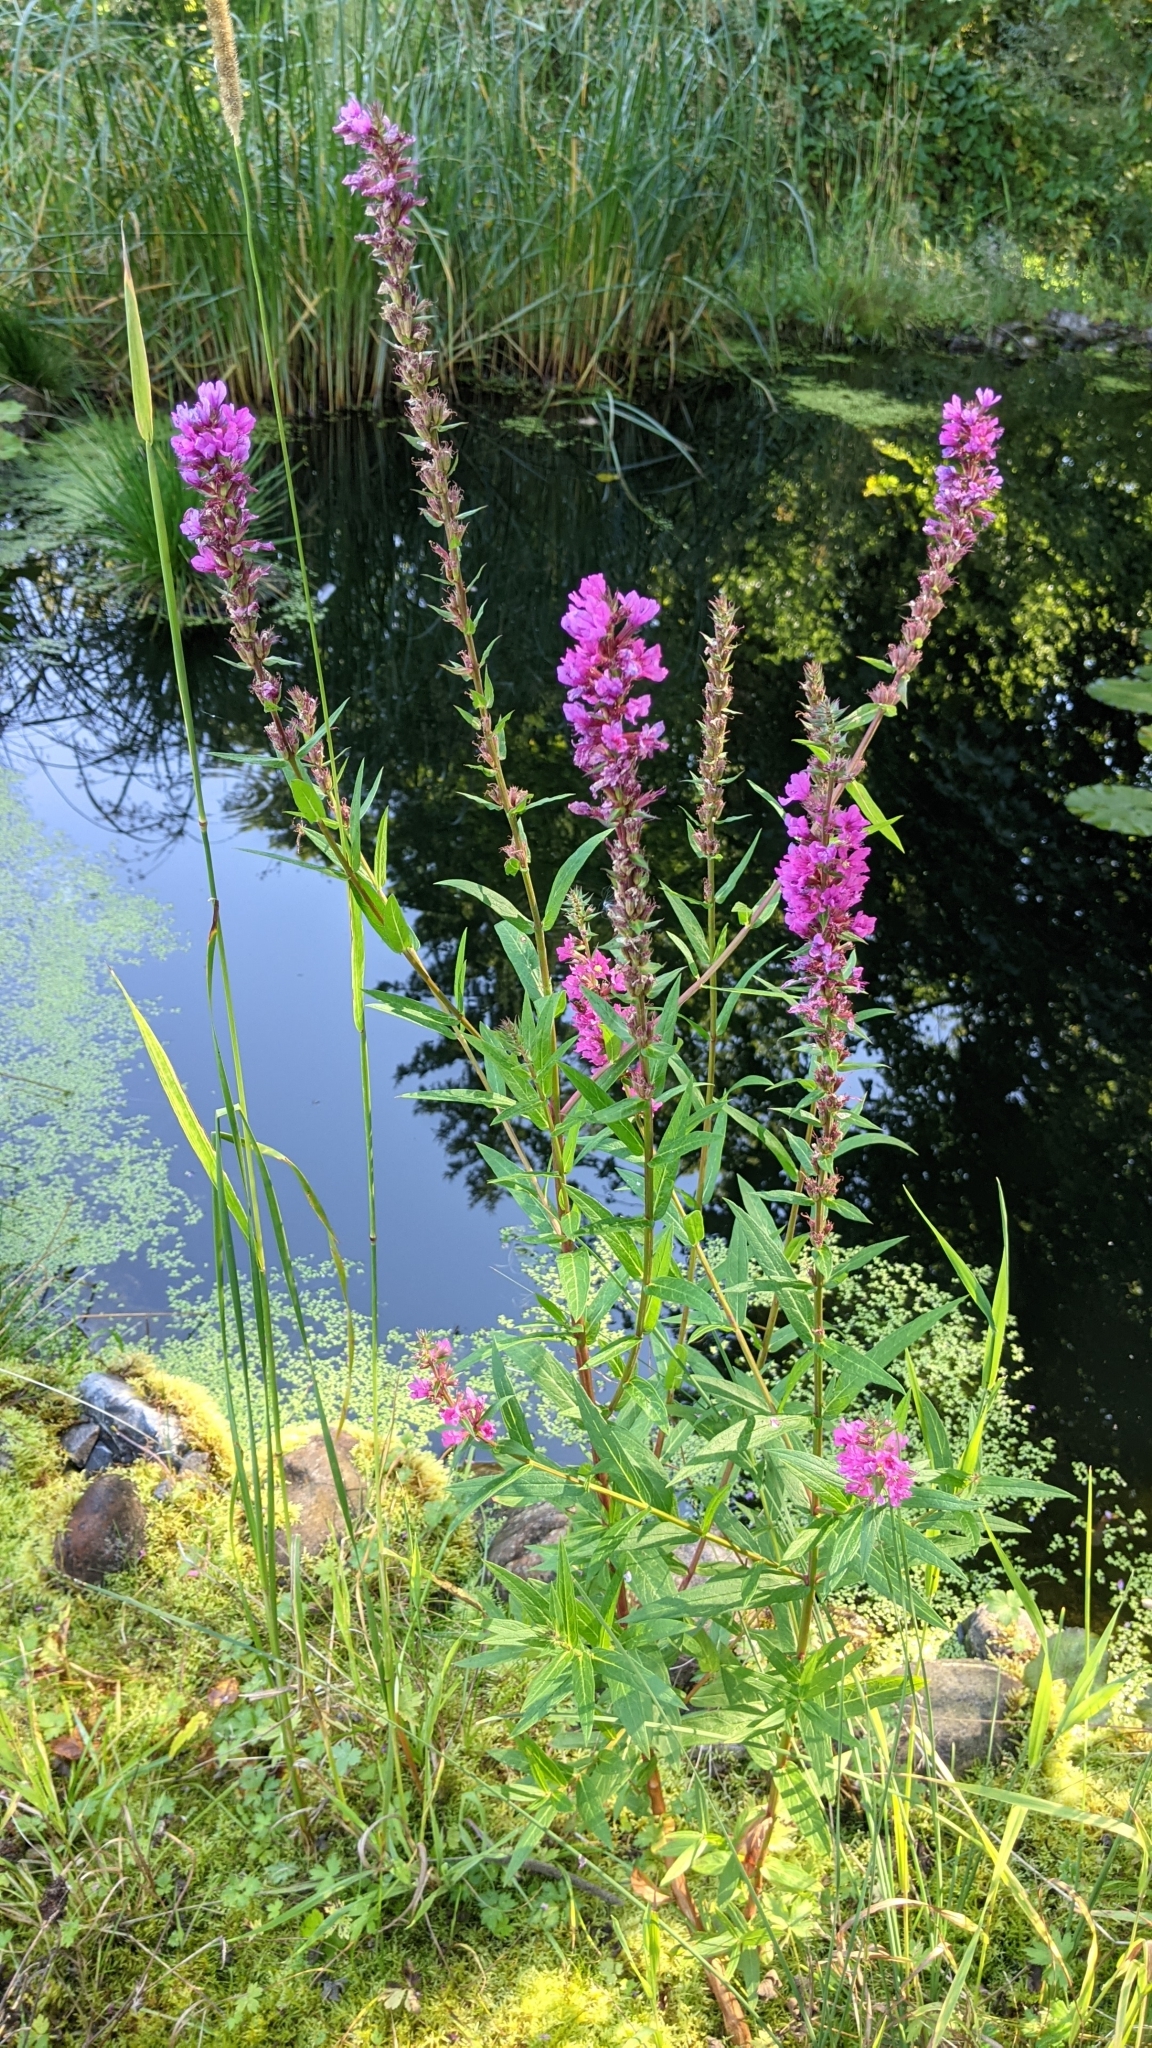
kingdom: Plantae
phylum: Tracheophyta
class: Magnoliopsida
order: Myrtales
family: Lythraceae
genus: Lythrum
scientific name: Lythrum salicaria
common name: Purple loosestrife
